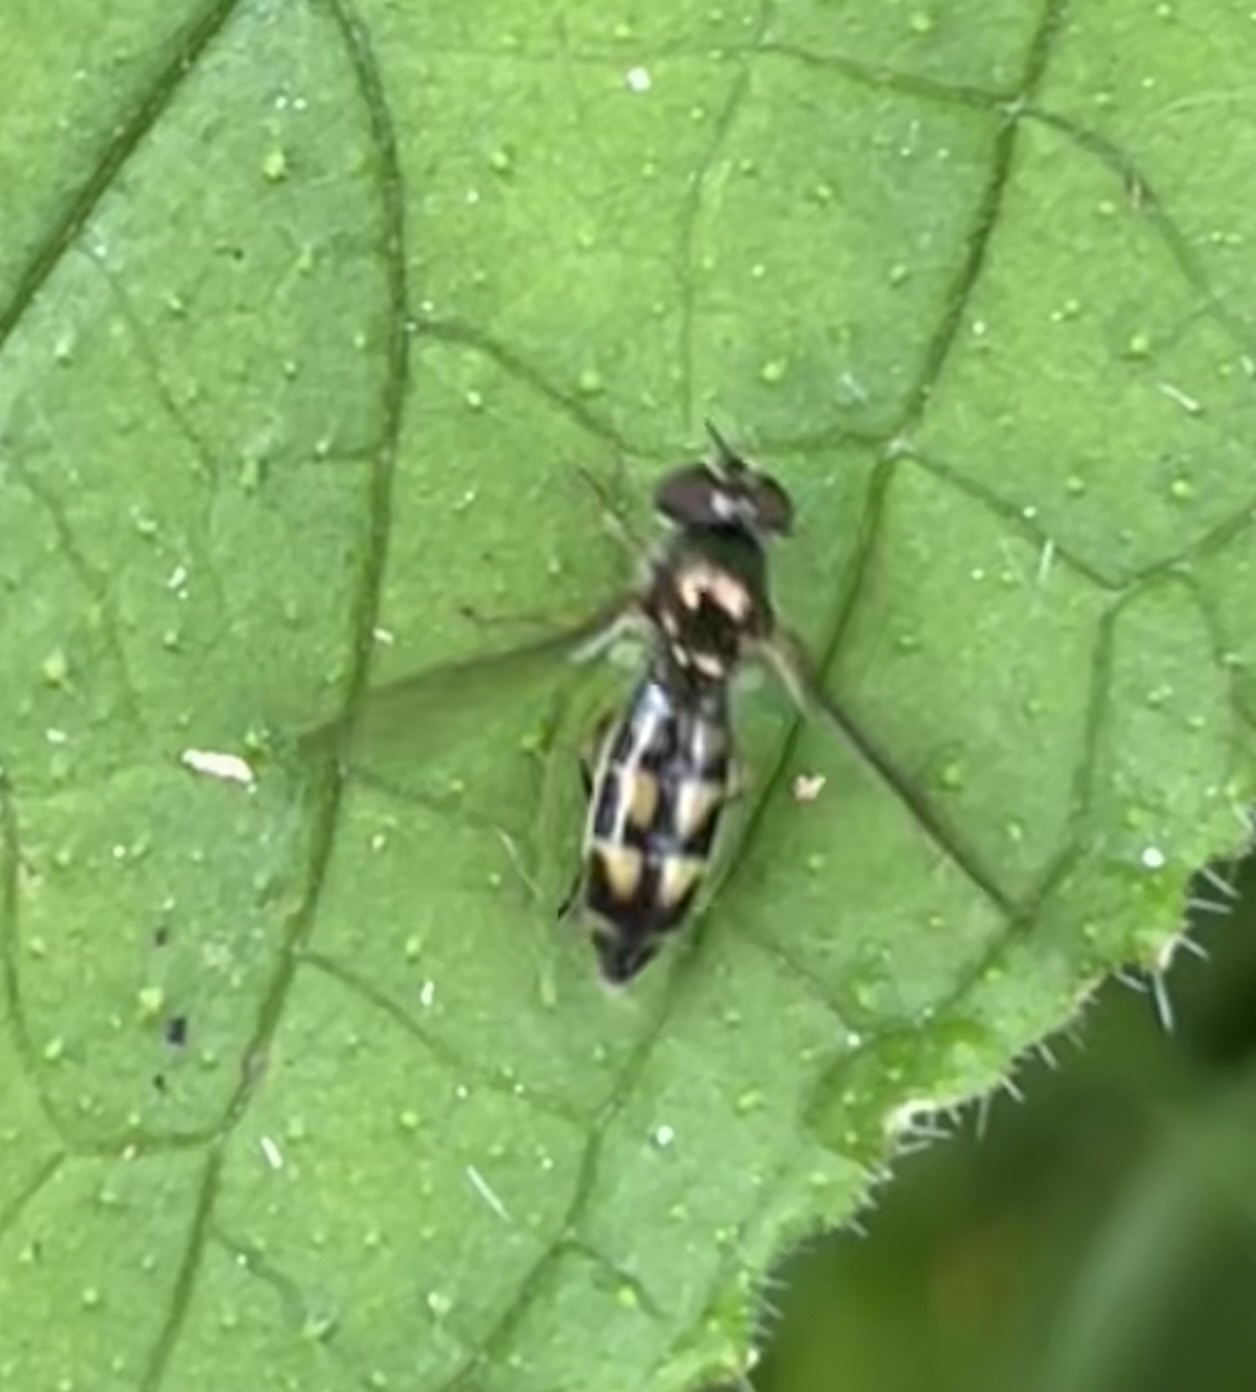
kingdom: Animalia
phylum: Arthropoda
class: Insecta
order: Diptera
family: Syrphidae
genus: Melanostoma
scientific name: Melanostoma scalare
